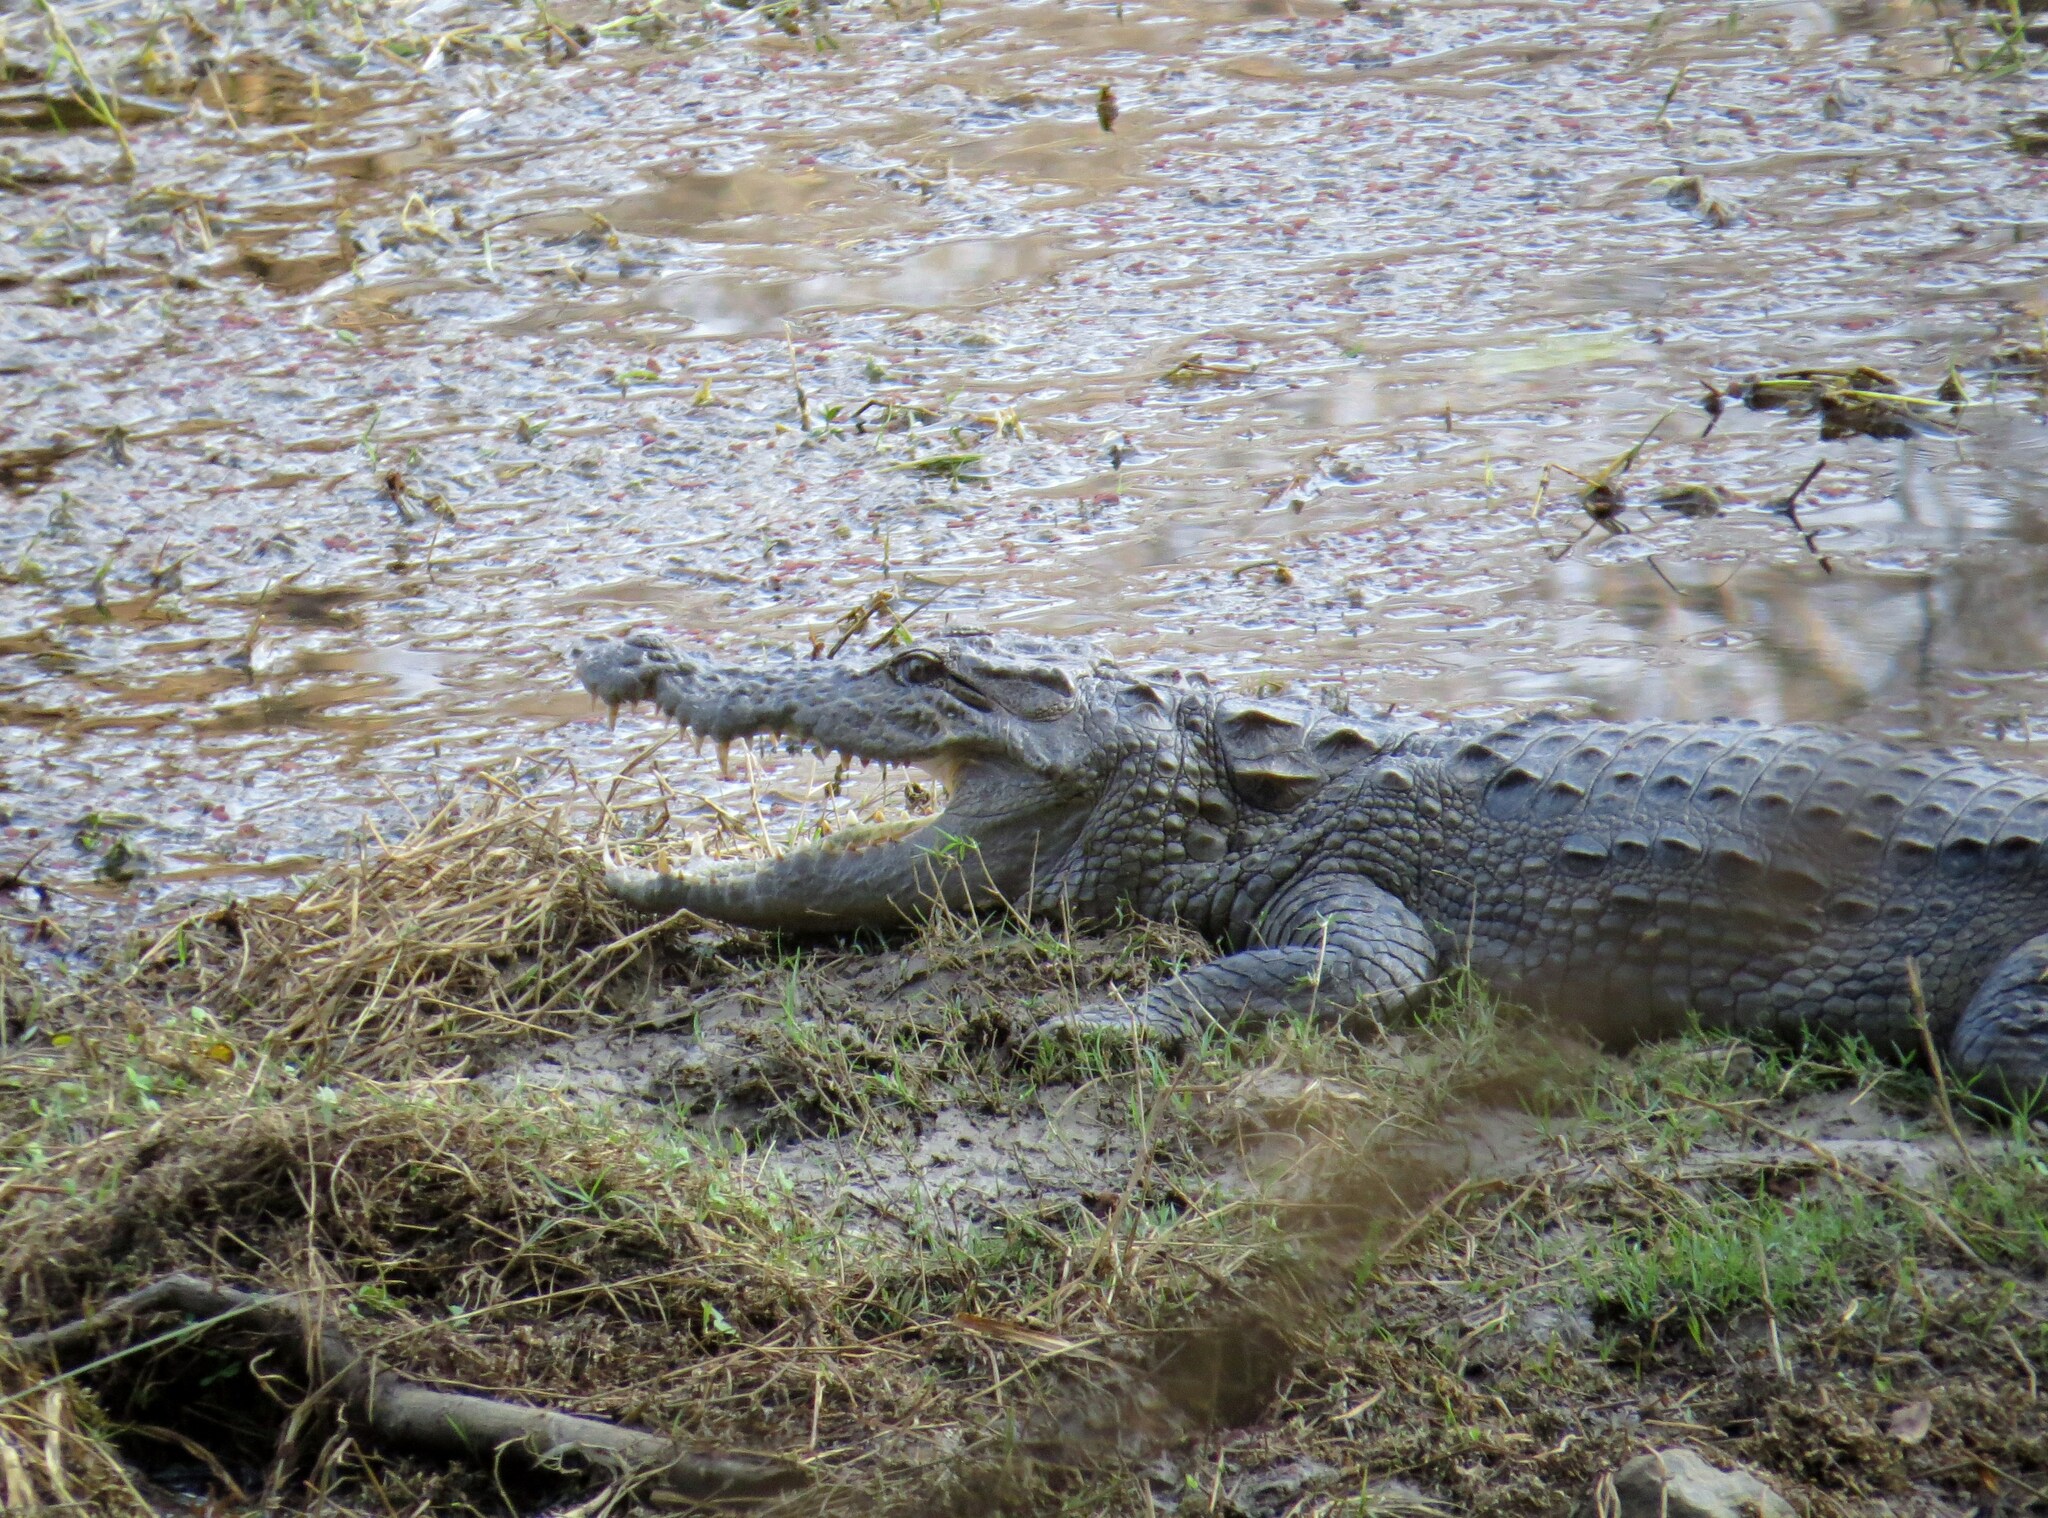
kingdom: Animalia
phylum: Chordata
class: Crocodylia
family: Crocodylidae
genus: Crocodylus
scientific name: Crocodylus palustris
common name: Mugger crocodile
